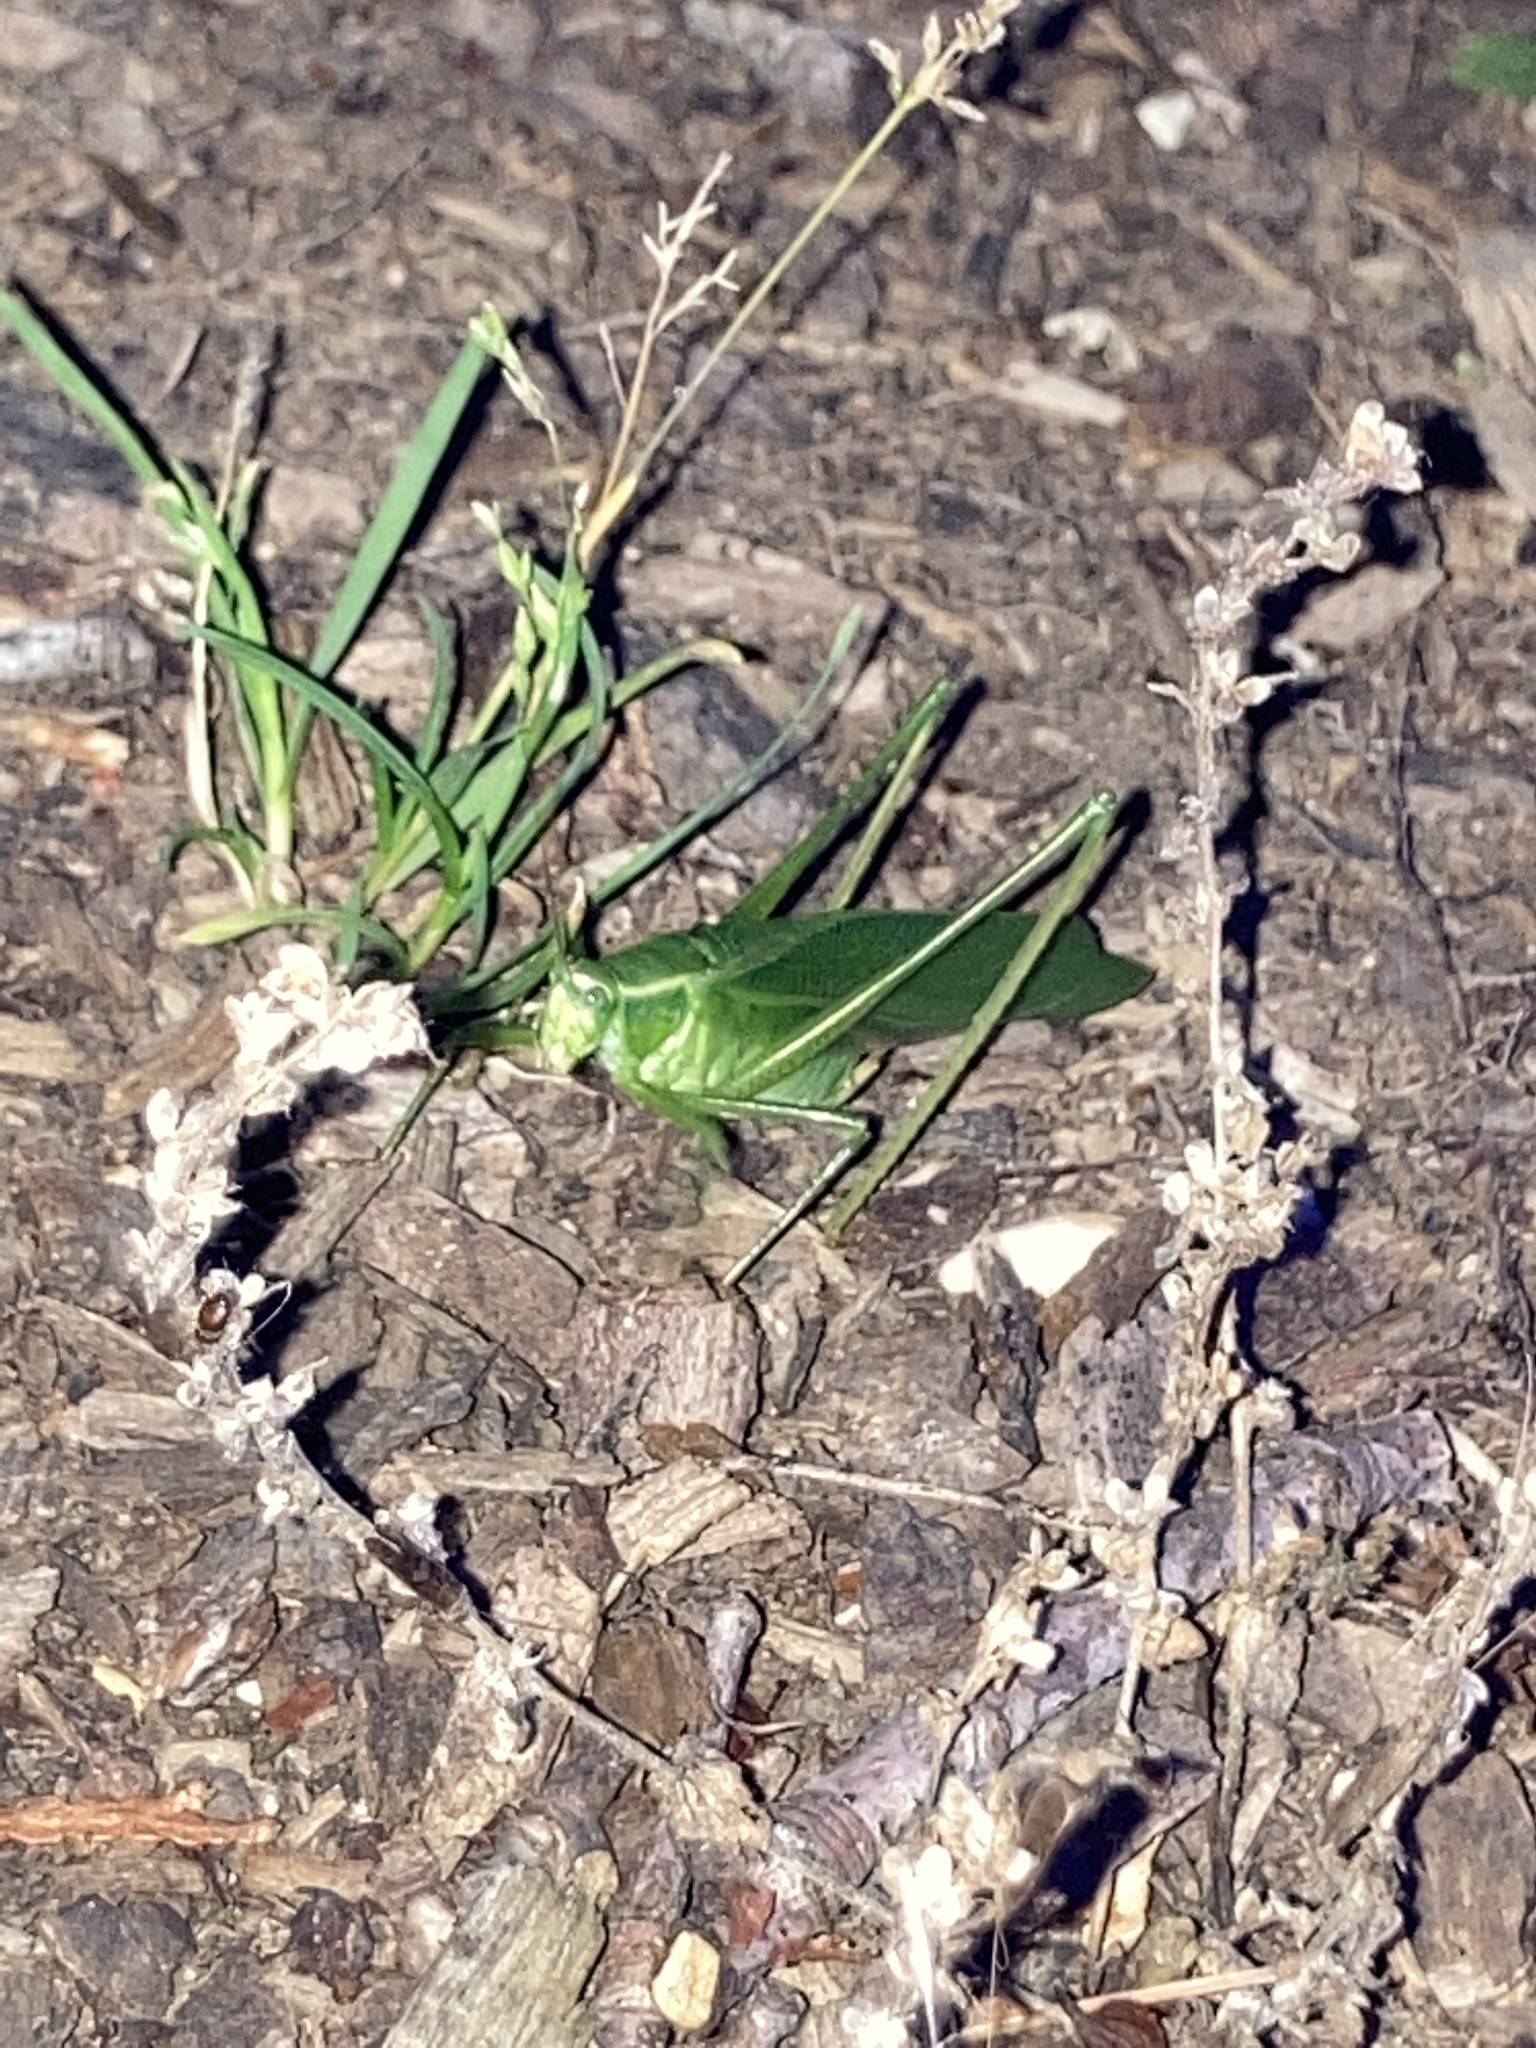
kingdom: Animalia
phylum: Arthropoda
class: Insecta
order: Orthoptera
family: Tettigoniidae
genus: Scudderia
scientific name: Scudderia septentrionalis
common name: Northern bush-katydid
